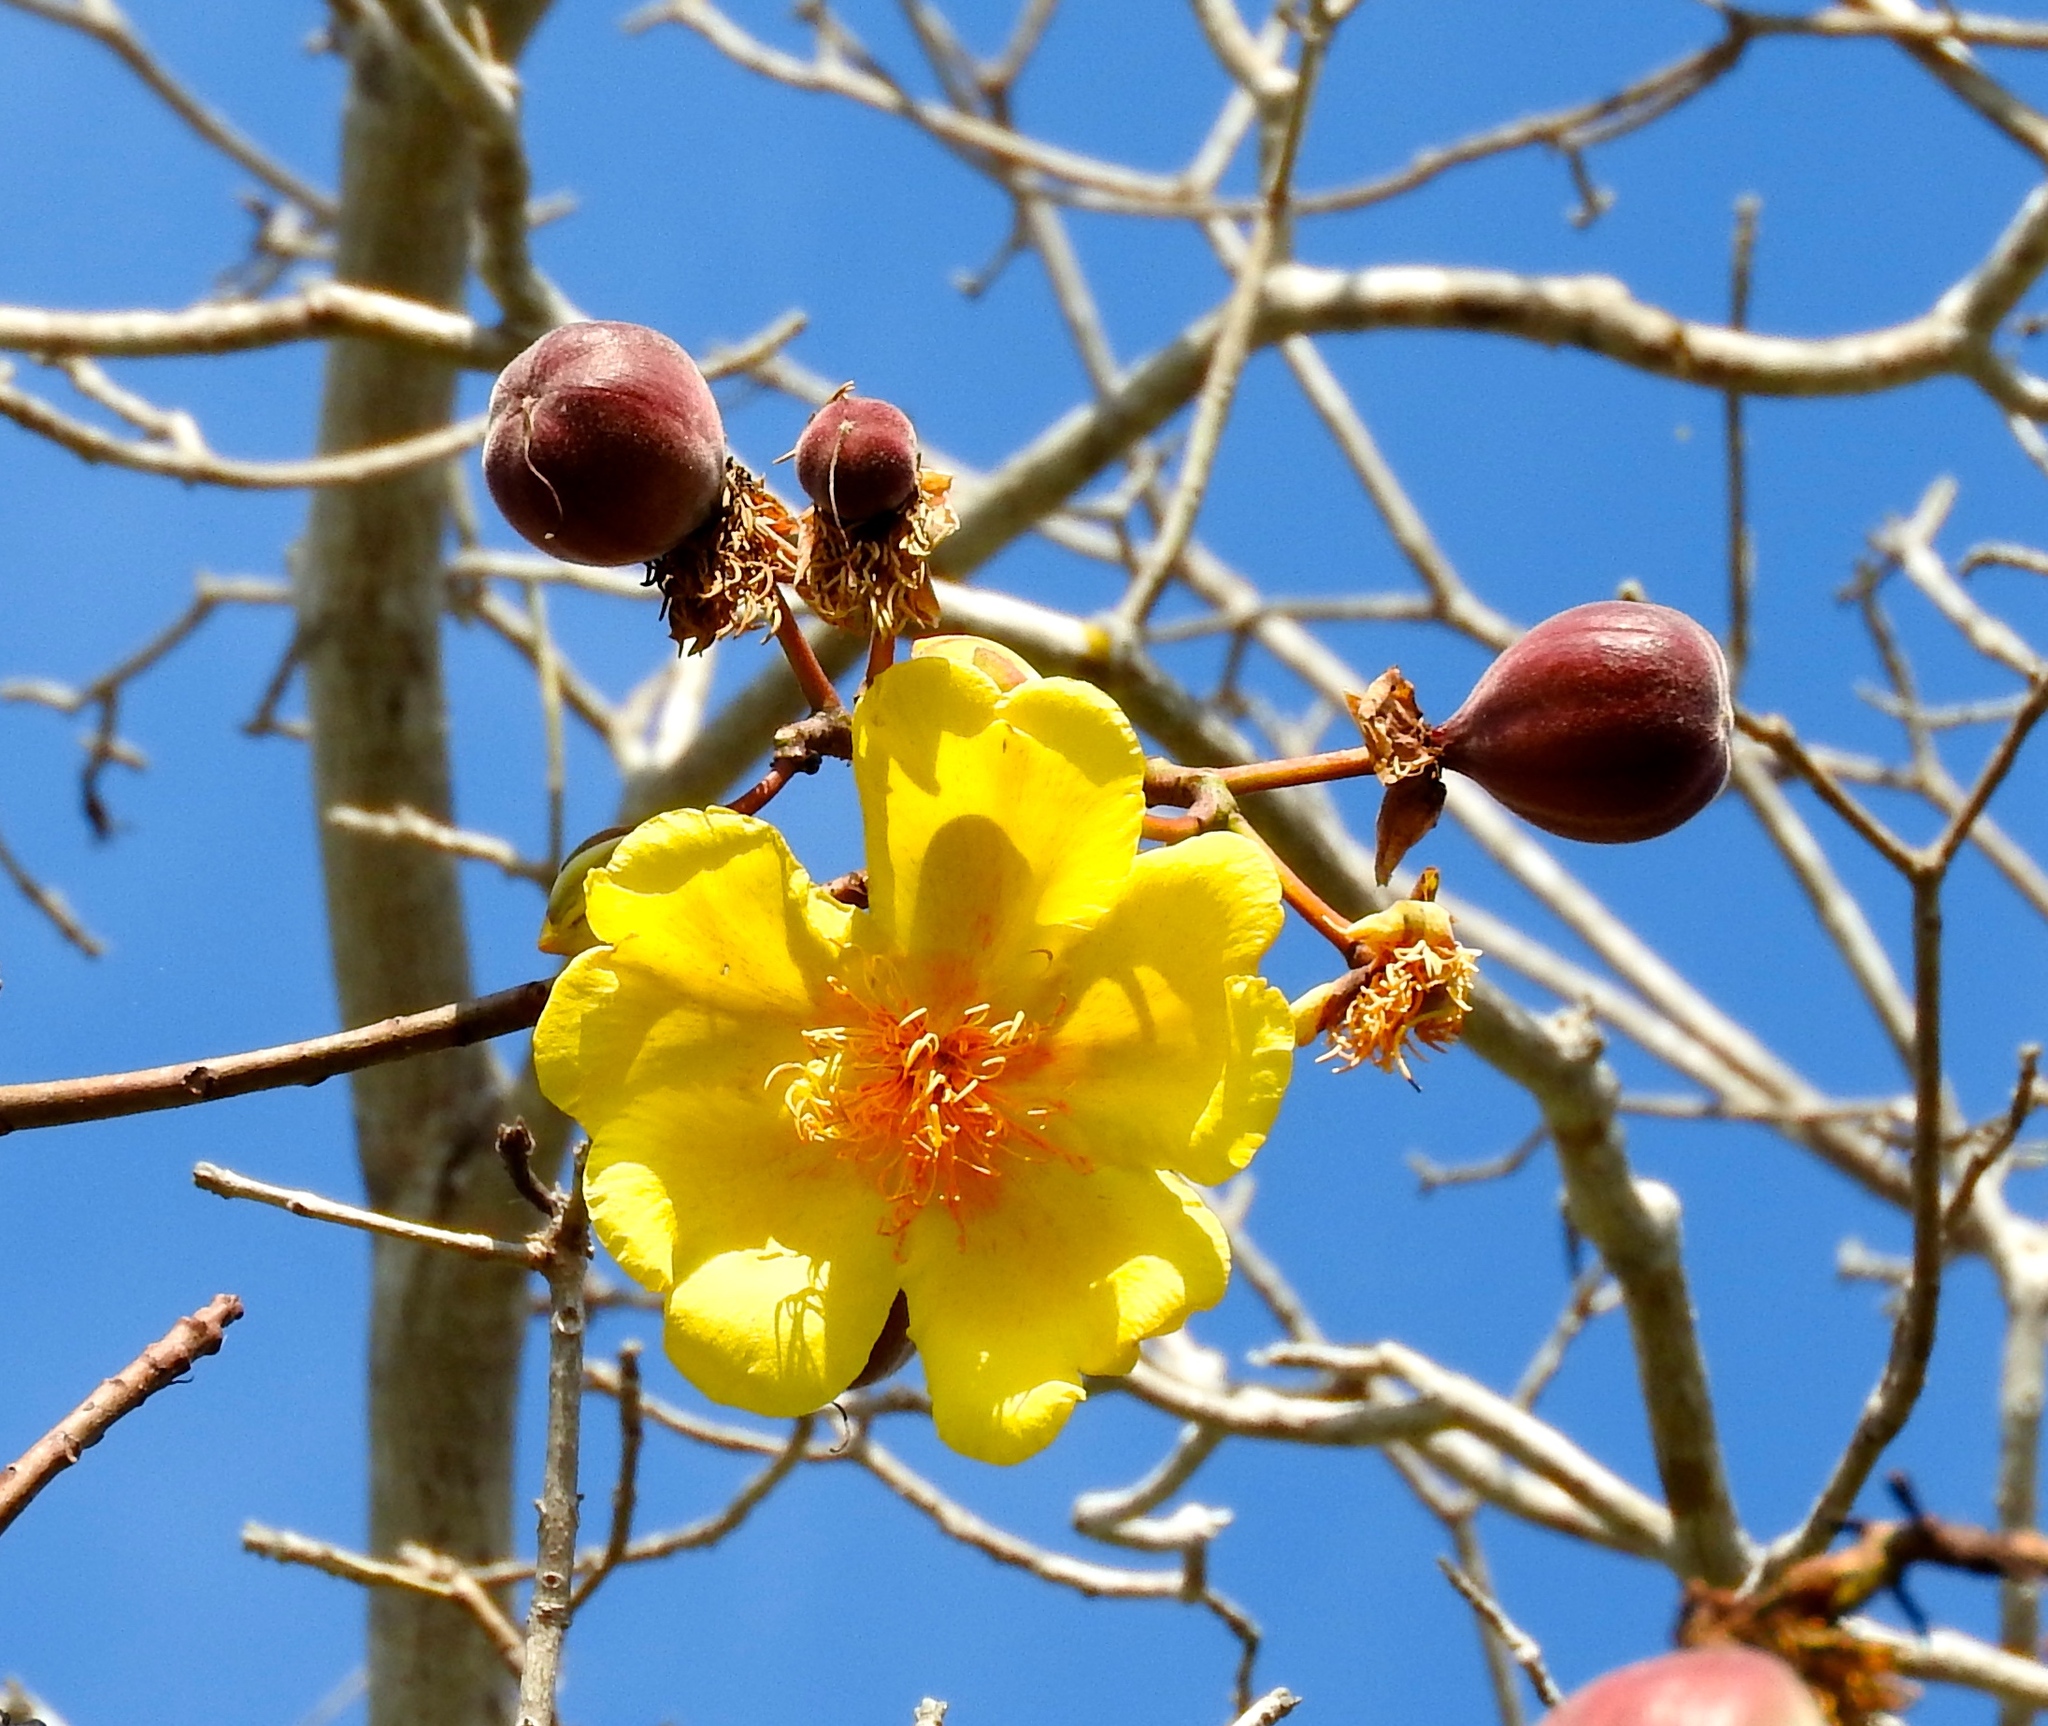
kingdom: Plantae
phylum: Tracheophyta
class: Magnoliopsida
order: Malvales
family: Cochlospermaceae
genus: Cochlospermum
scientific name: Cochlospermum vitifolium
